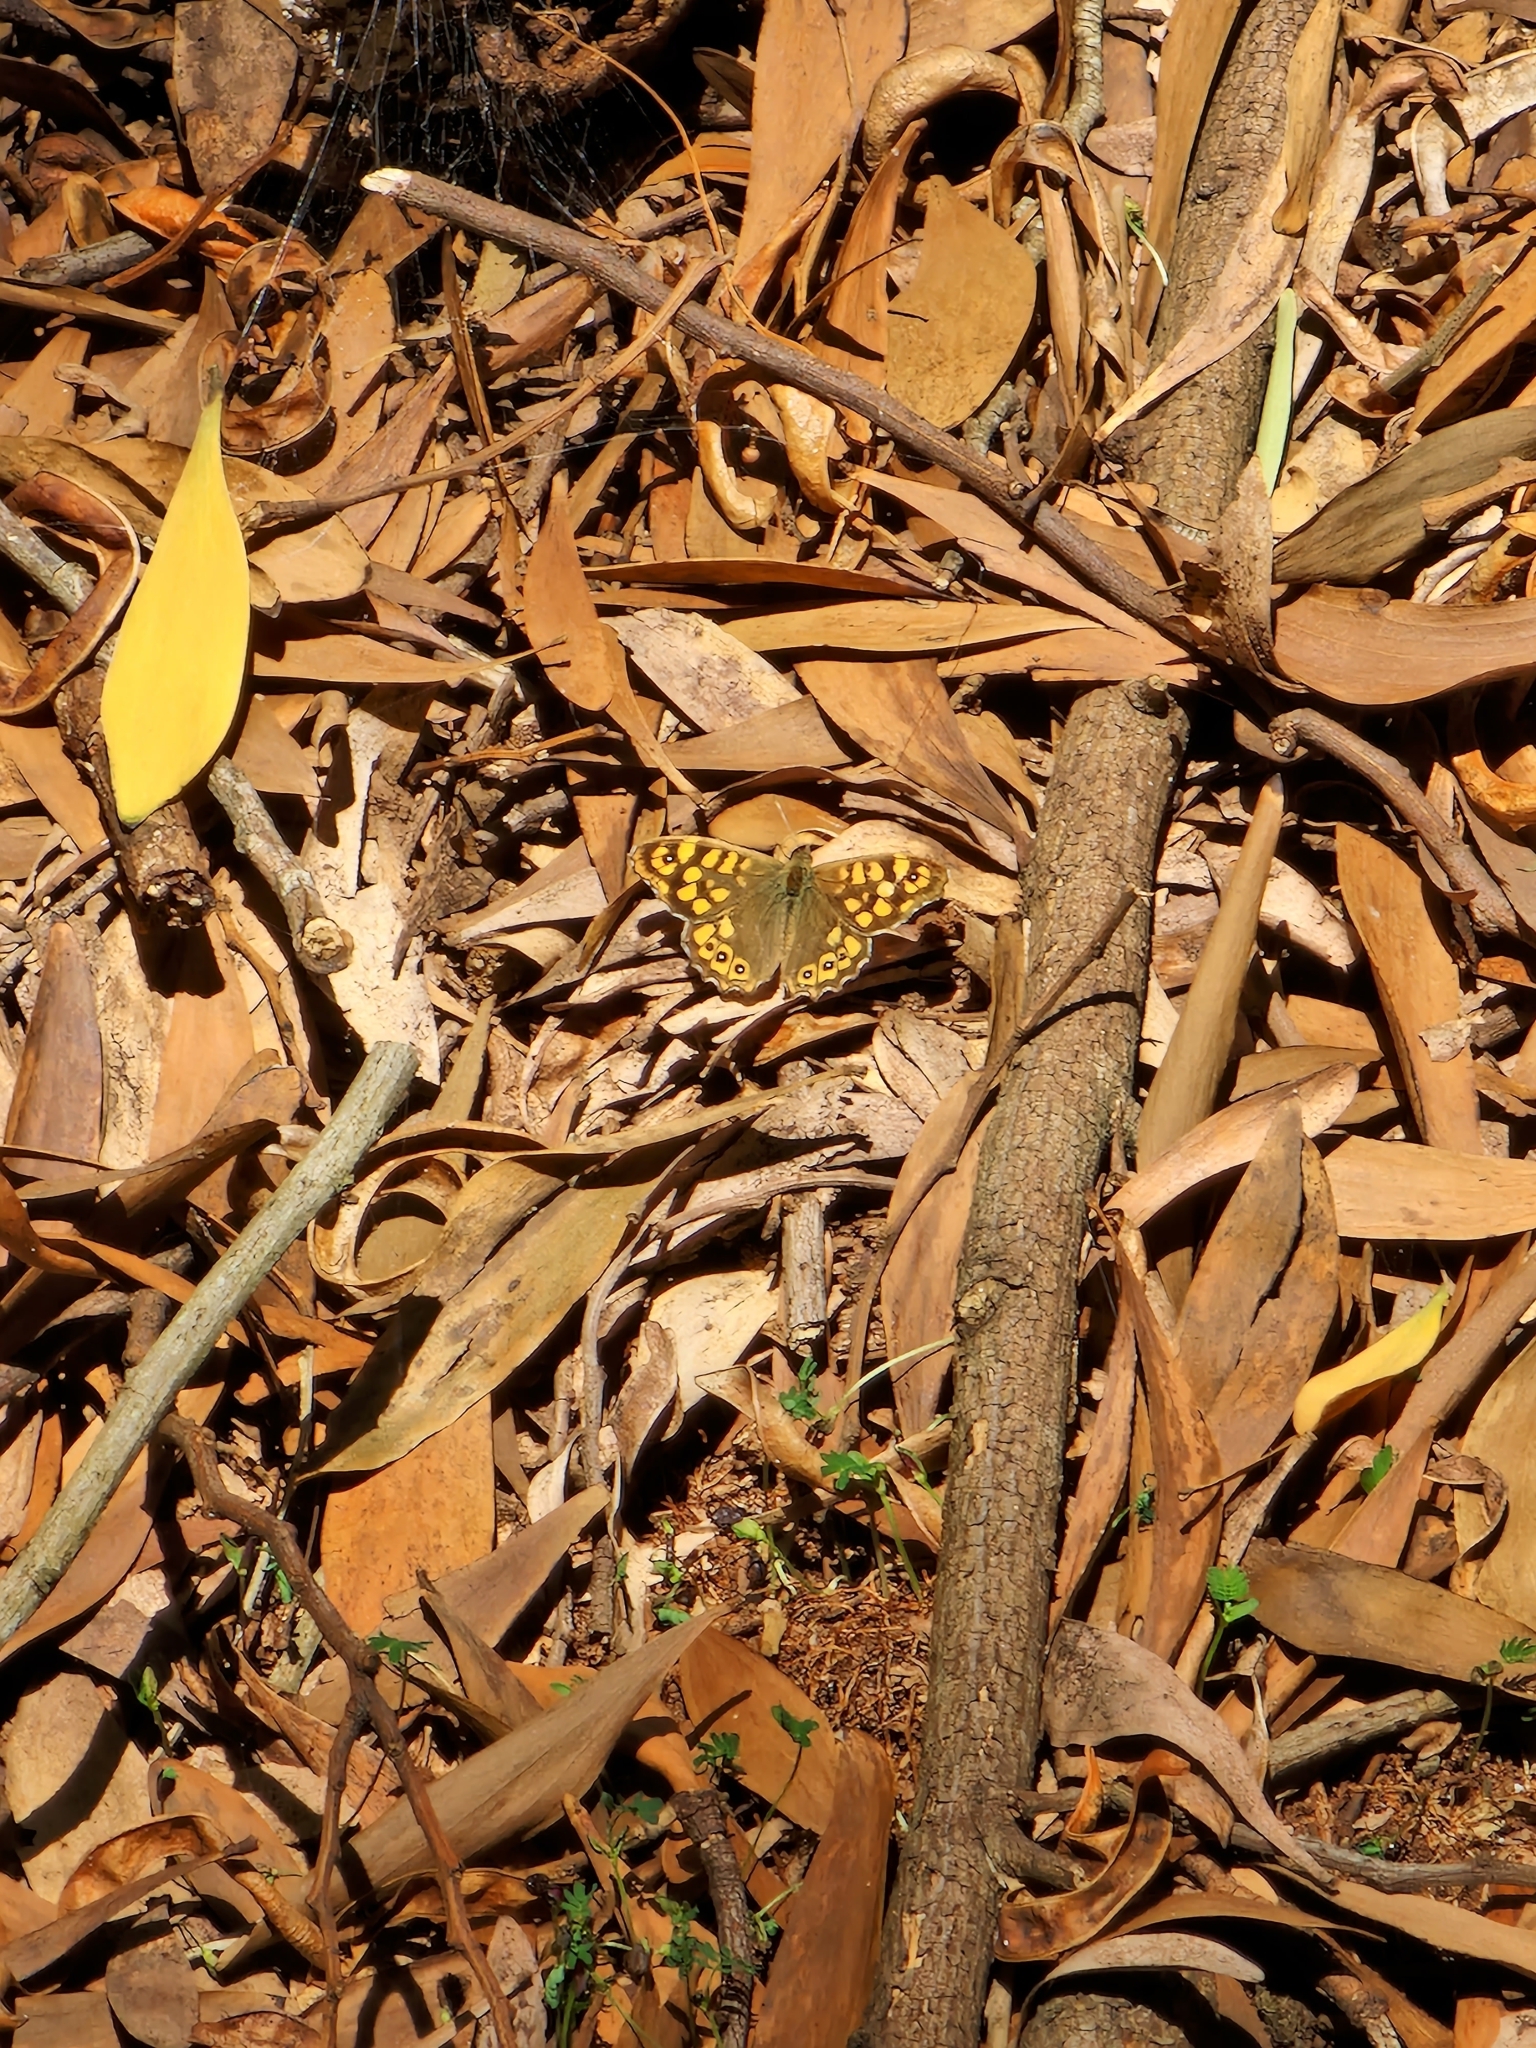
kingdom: Animalia
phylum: Arthropoda
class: Insecta
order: Lepidoptera
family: Nymphalidae
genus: Pararge
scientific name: Pararge aegeria
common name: Speckled wood
